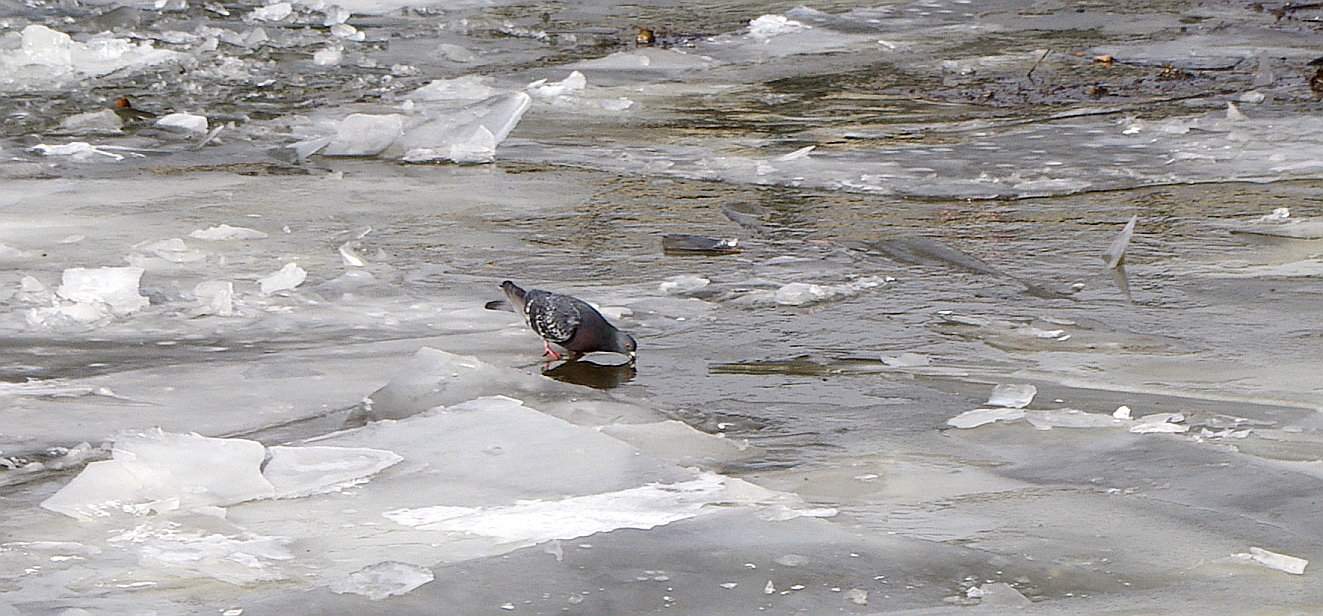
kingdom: Animalia
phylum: Chordata
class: Aves
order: Columbiformes
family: Columbidae
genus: Columba
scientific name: Columba livia
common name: Rock pigeon
